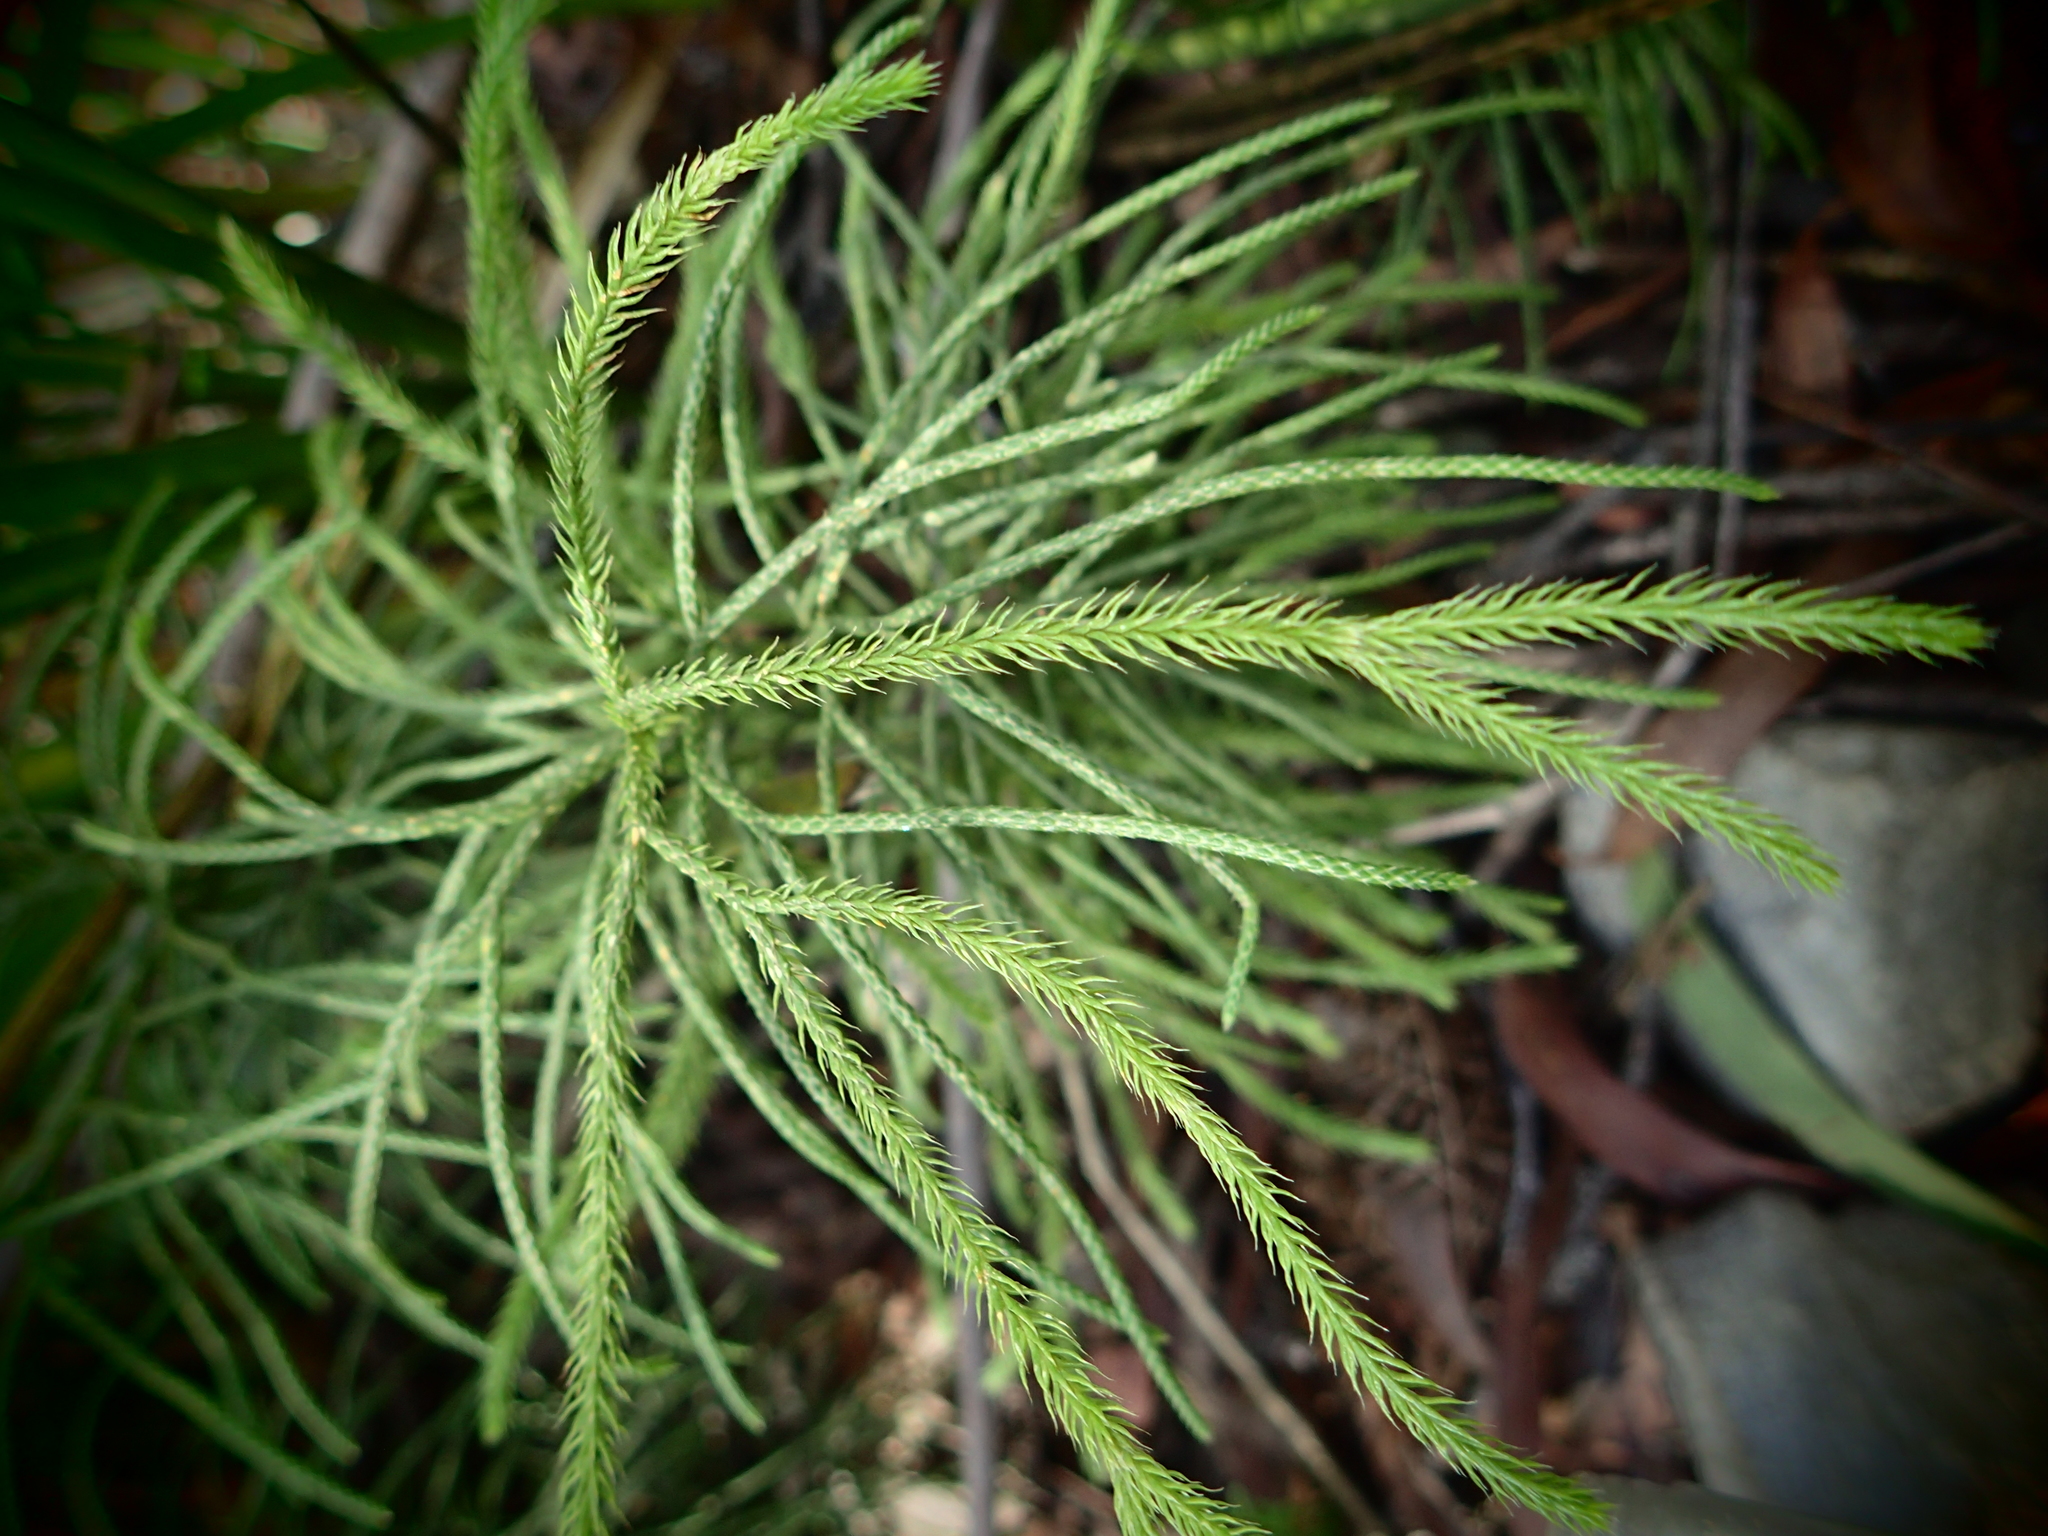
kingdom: Plantae
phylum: Tracheophyta
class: Lycopodiopsida
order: Lycopodiales
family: Lycopodiaceae
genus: Pseudolycopodium
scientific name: Pseudolycopodium densum
